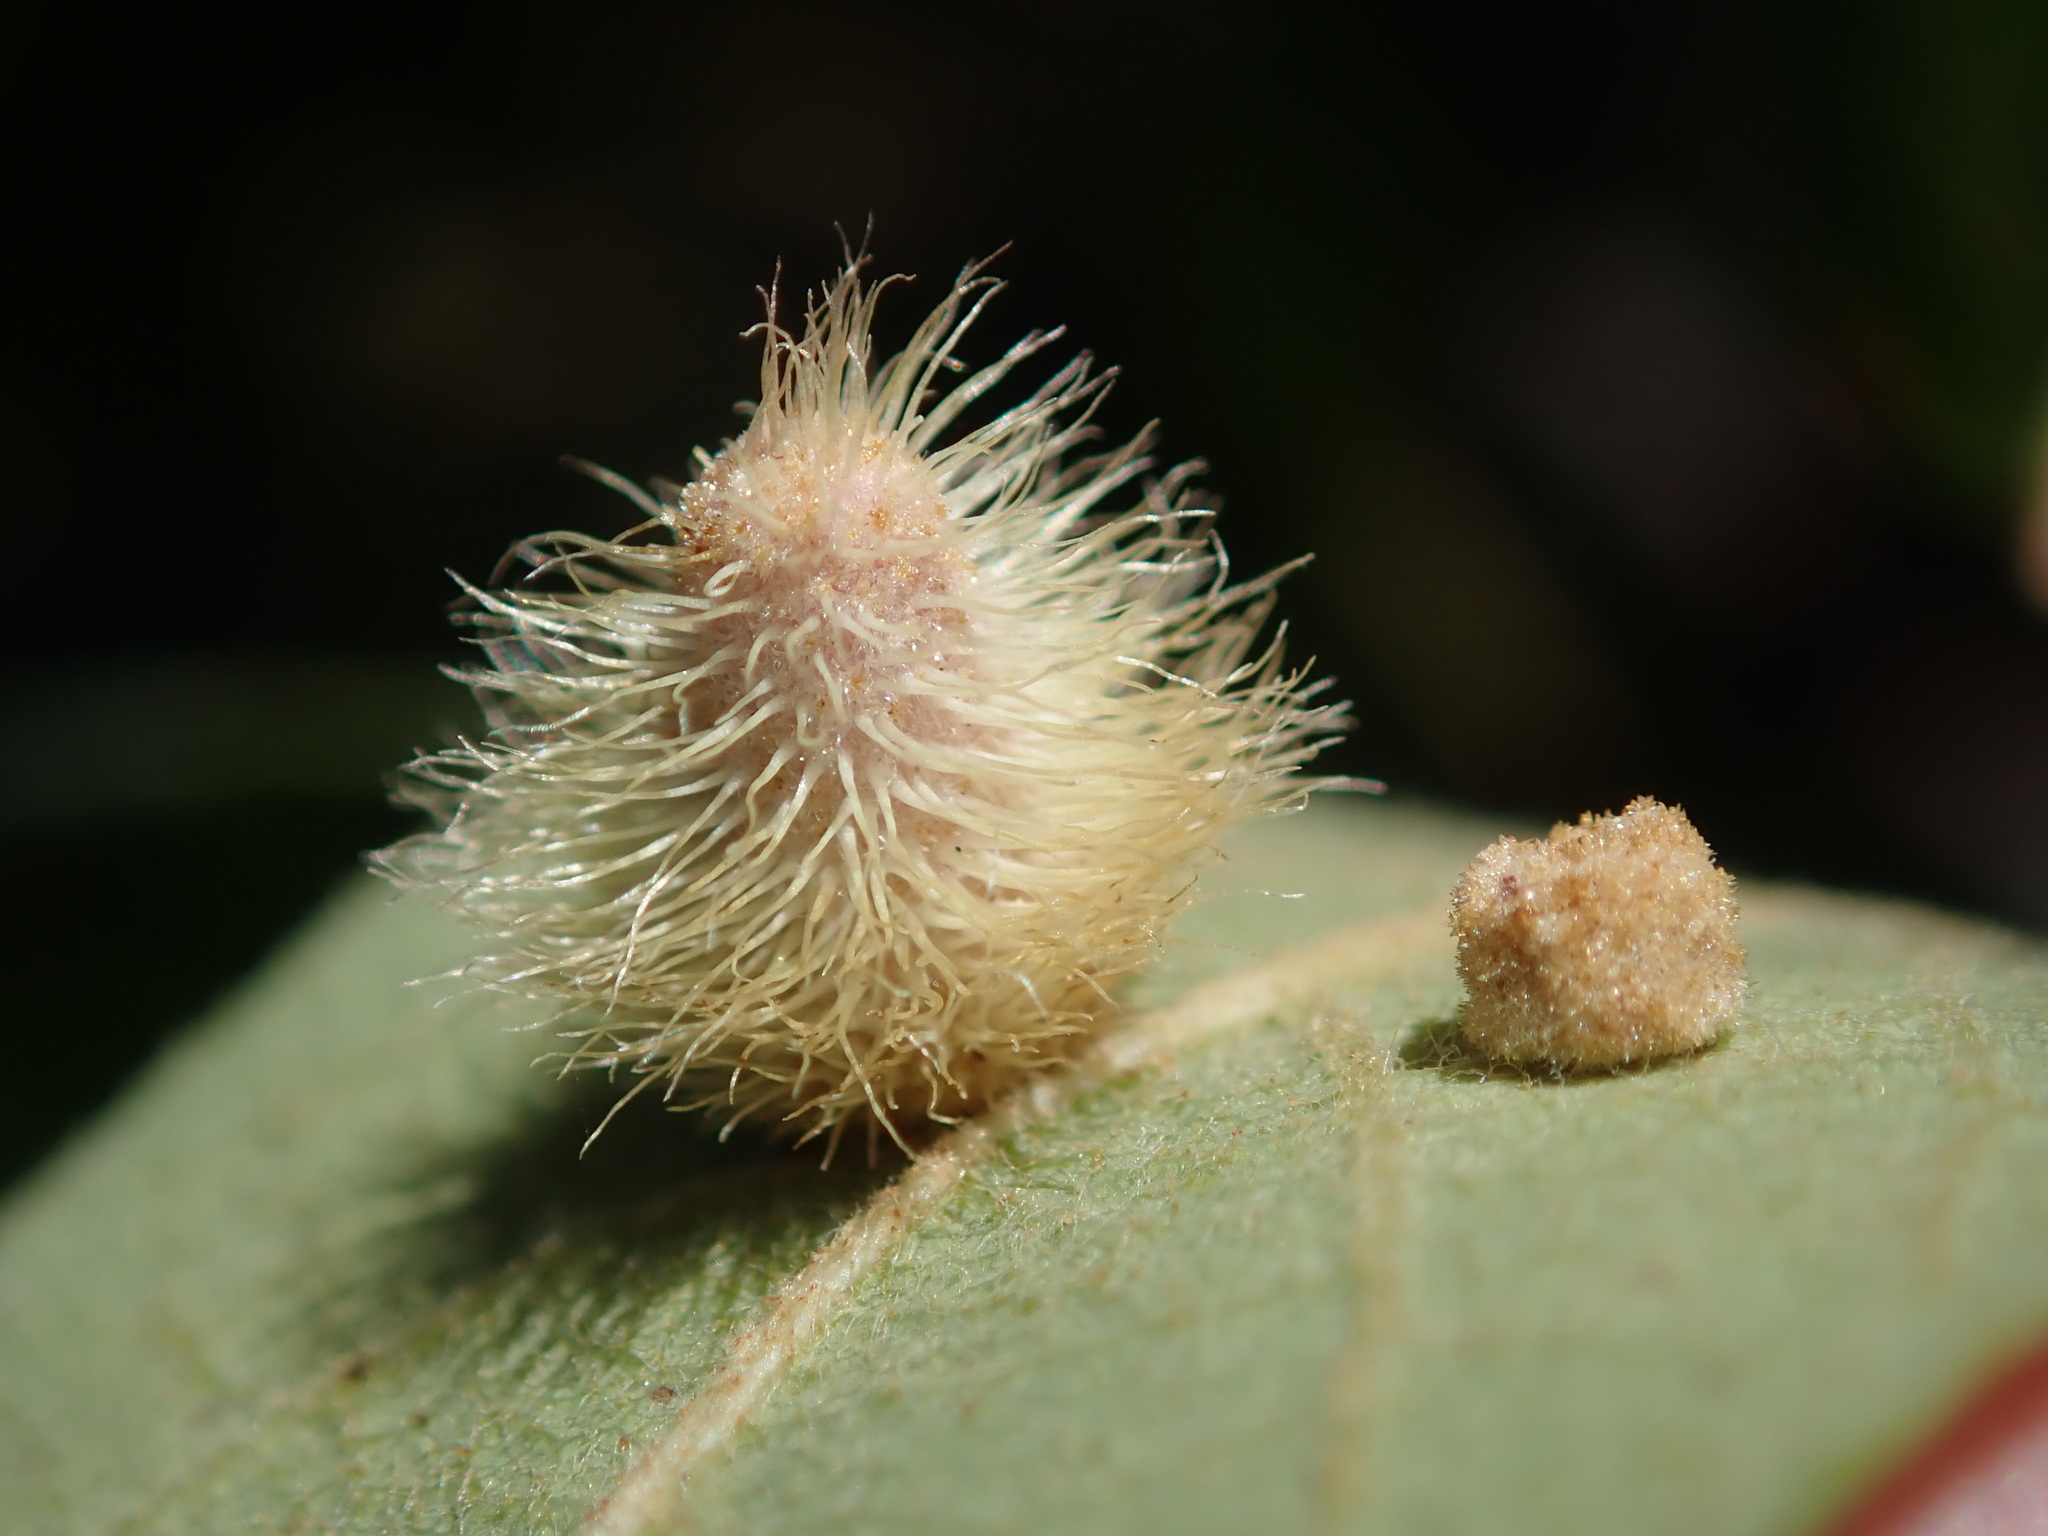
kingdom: Animalia
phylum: Arthropoda
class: Insecta
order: Hymenoptera
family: Cynipidae
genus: Andricus
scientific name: Andricus
